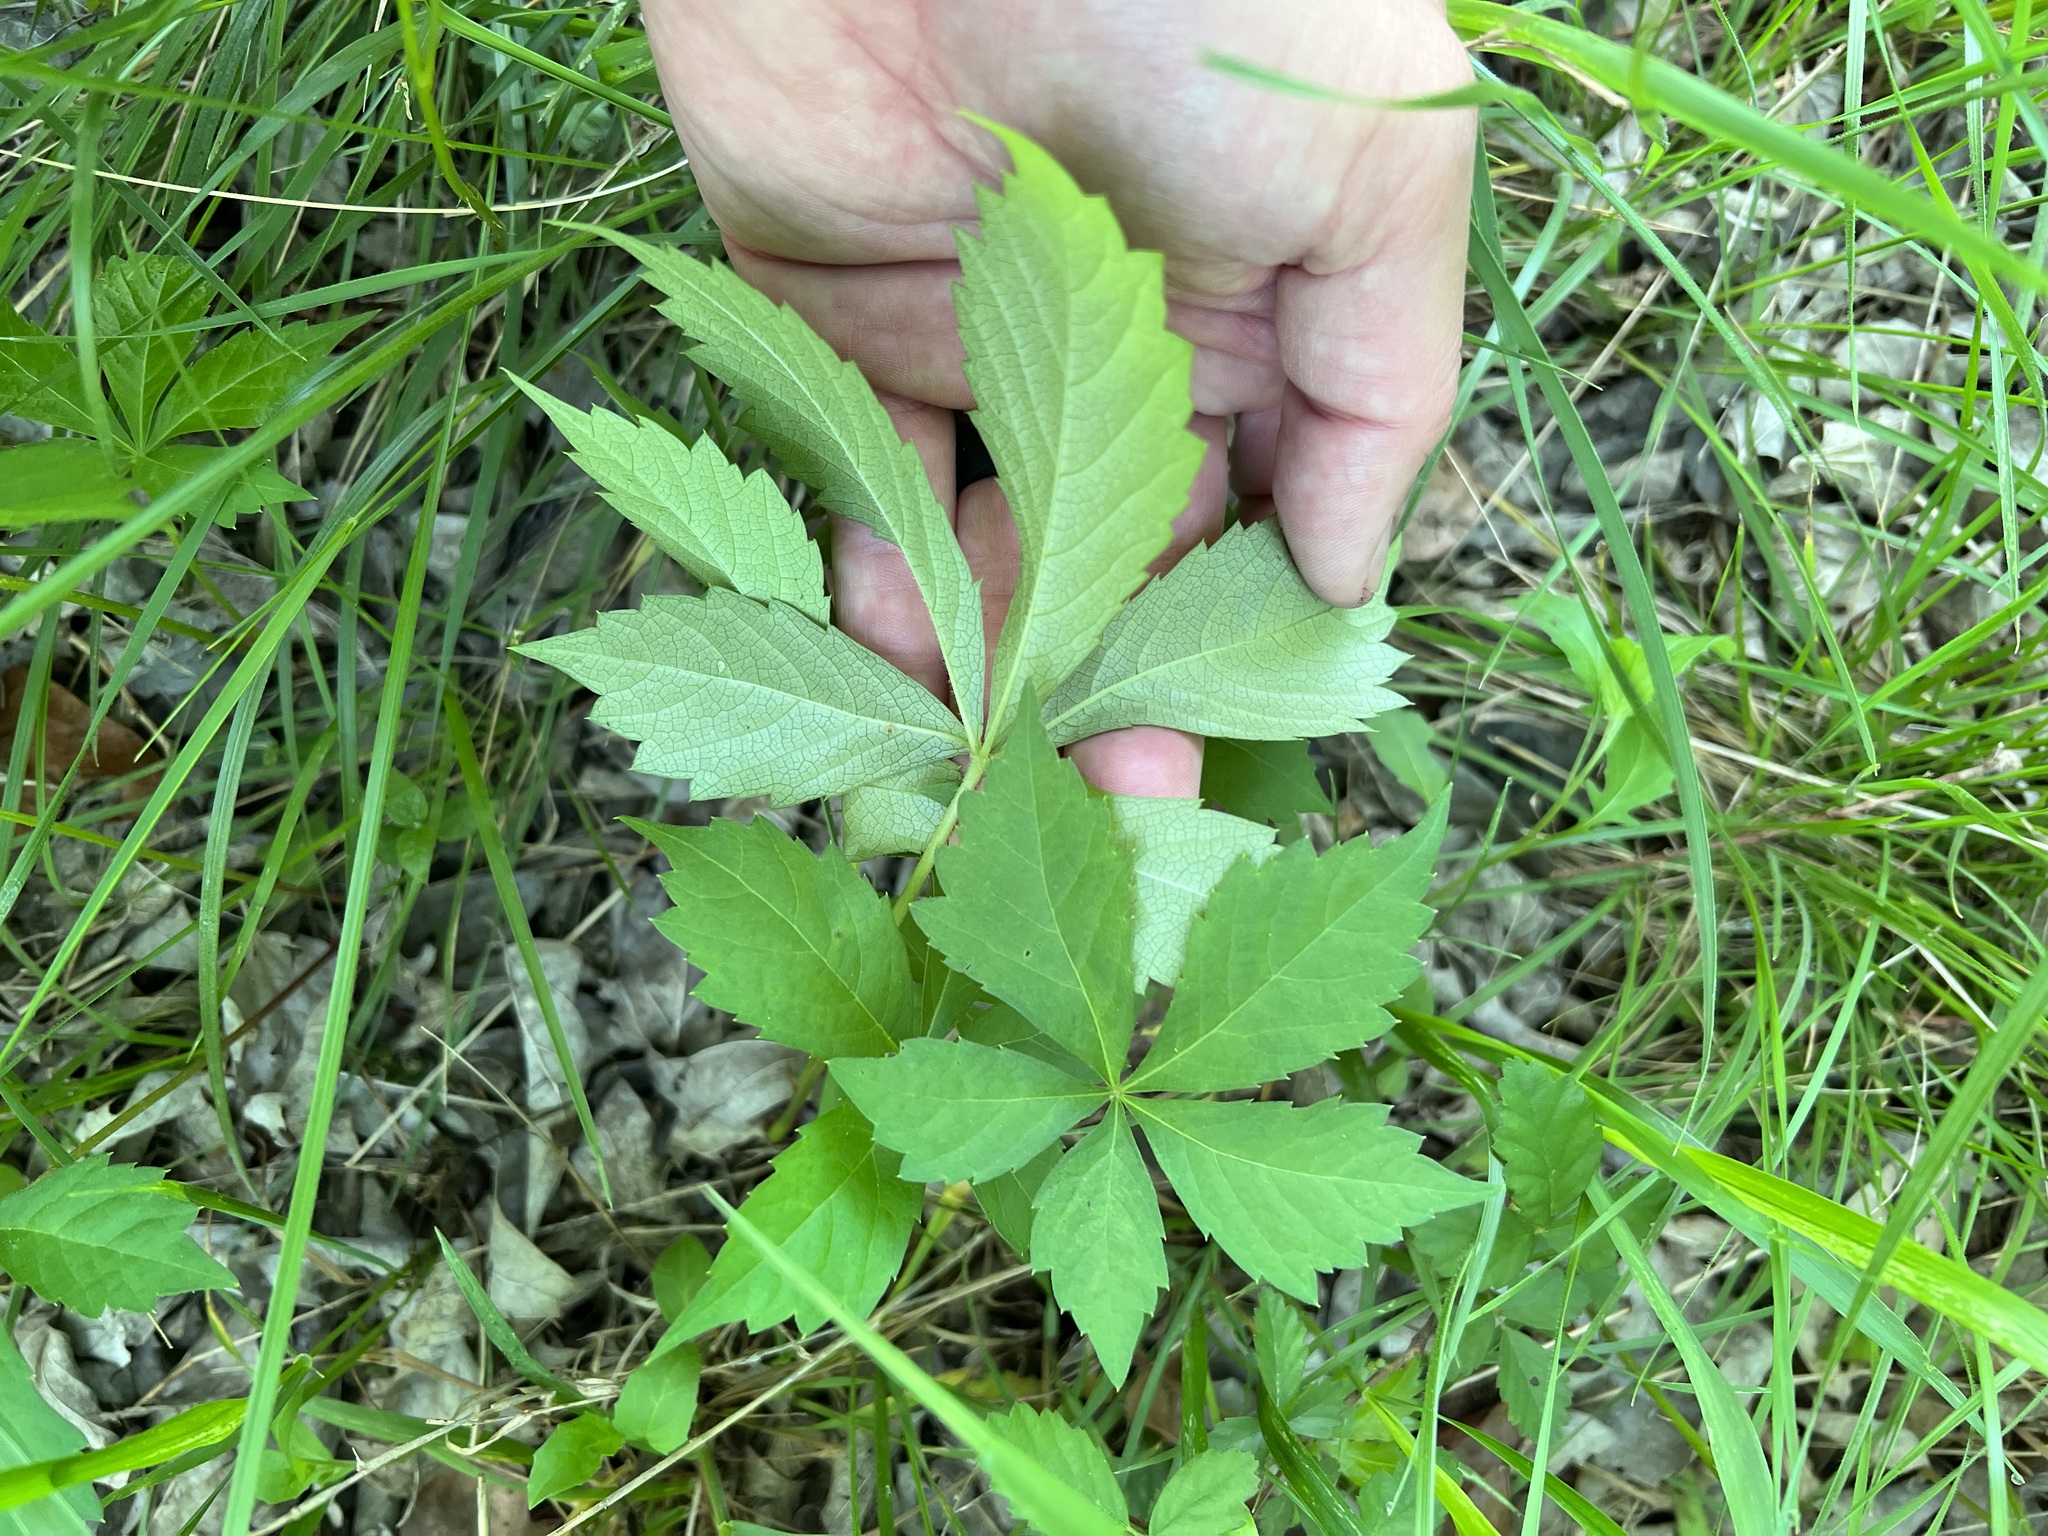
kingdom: Plantae
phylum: Tracheophyta
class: Magnoliopsida
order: Vitales
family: Vitaceae
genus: Parthenocissus
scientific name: Parthenocissus quinquefolia
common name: Virginia-creeper
